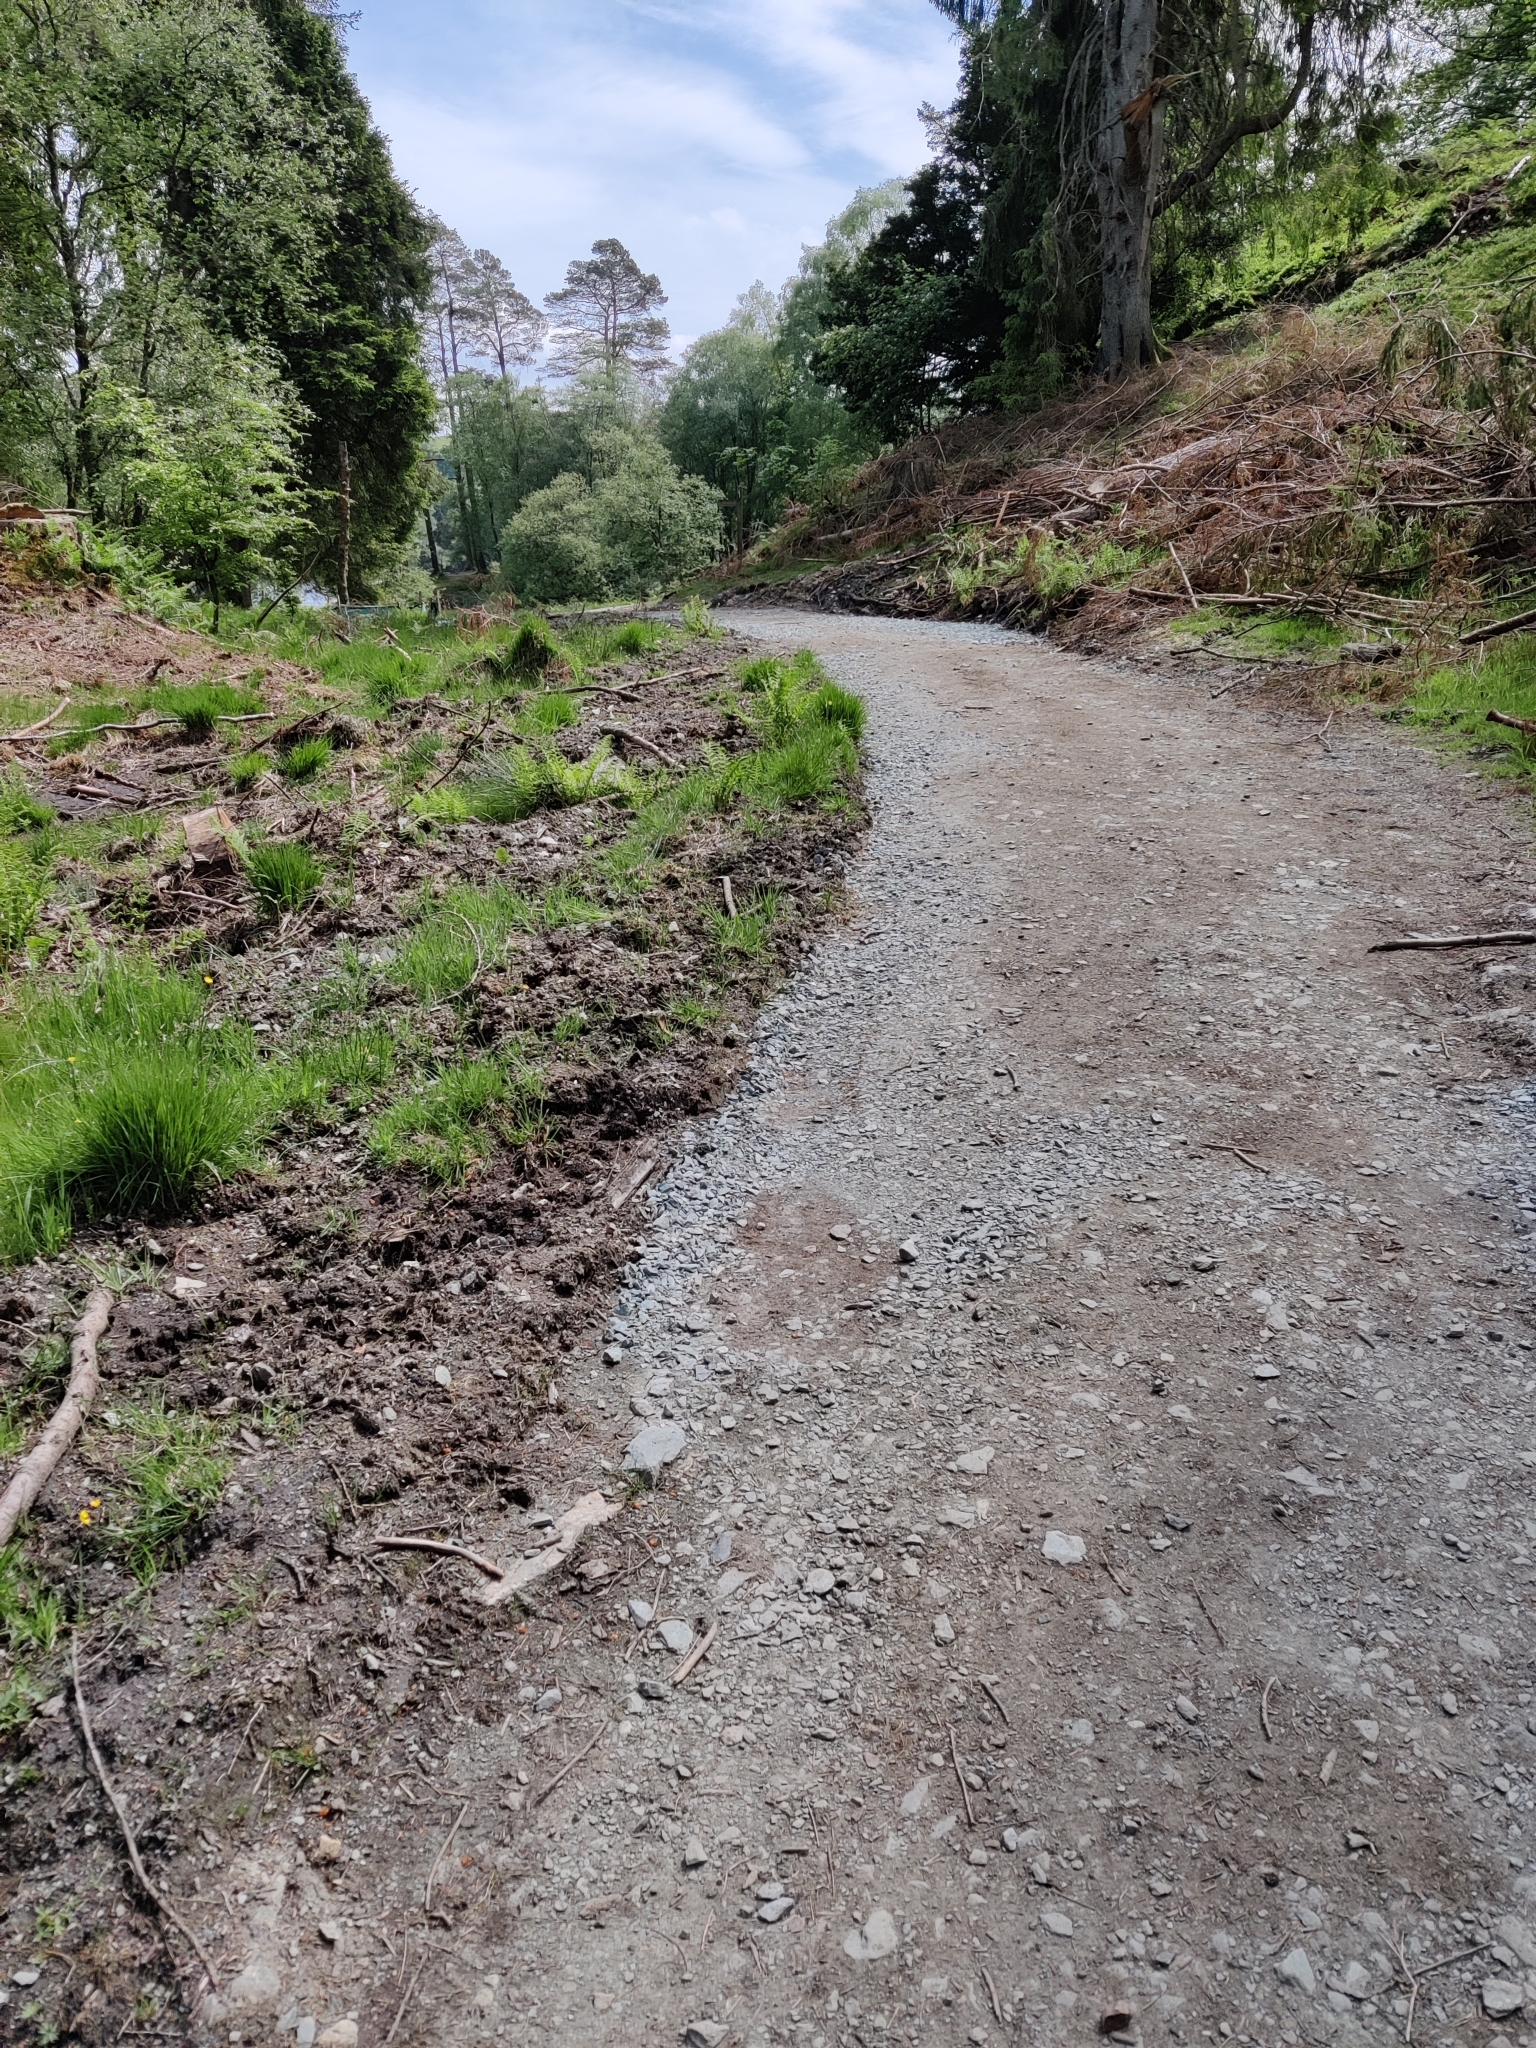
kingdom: Animalia
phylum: Arthropoda
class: Insecta
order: Odonata
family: Coenagrionidae
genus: Pyrrhosoma
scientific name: Pyrrhosoma nymphula
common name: Large red damsel
